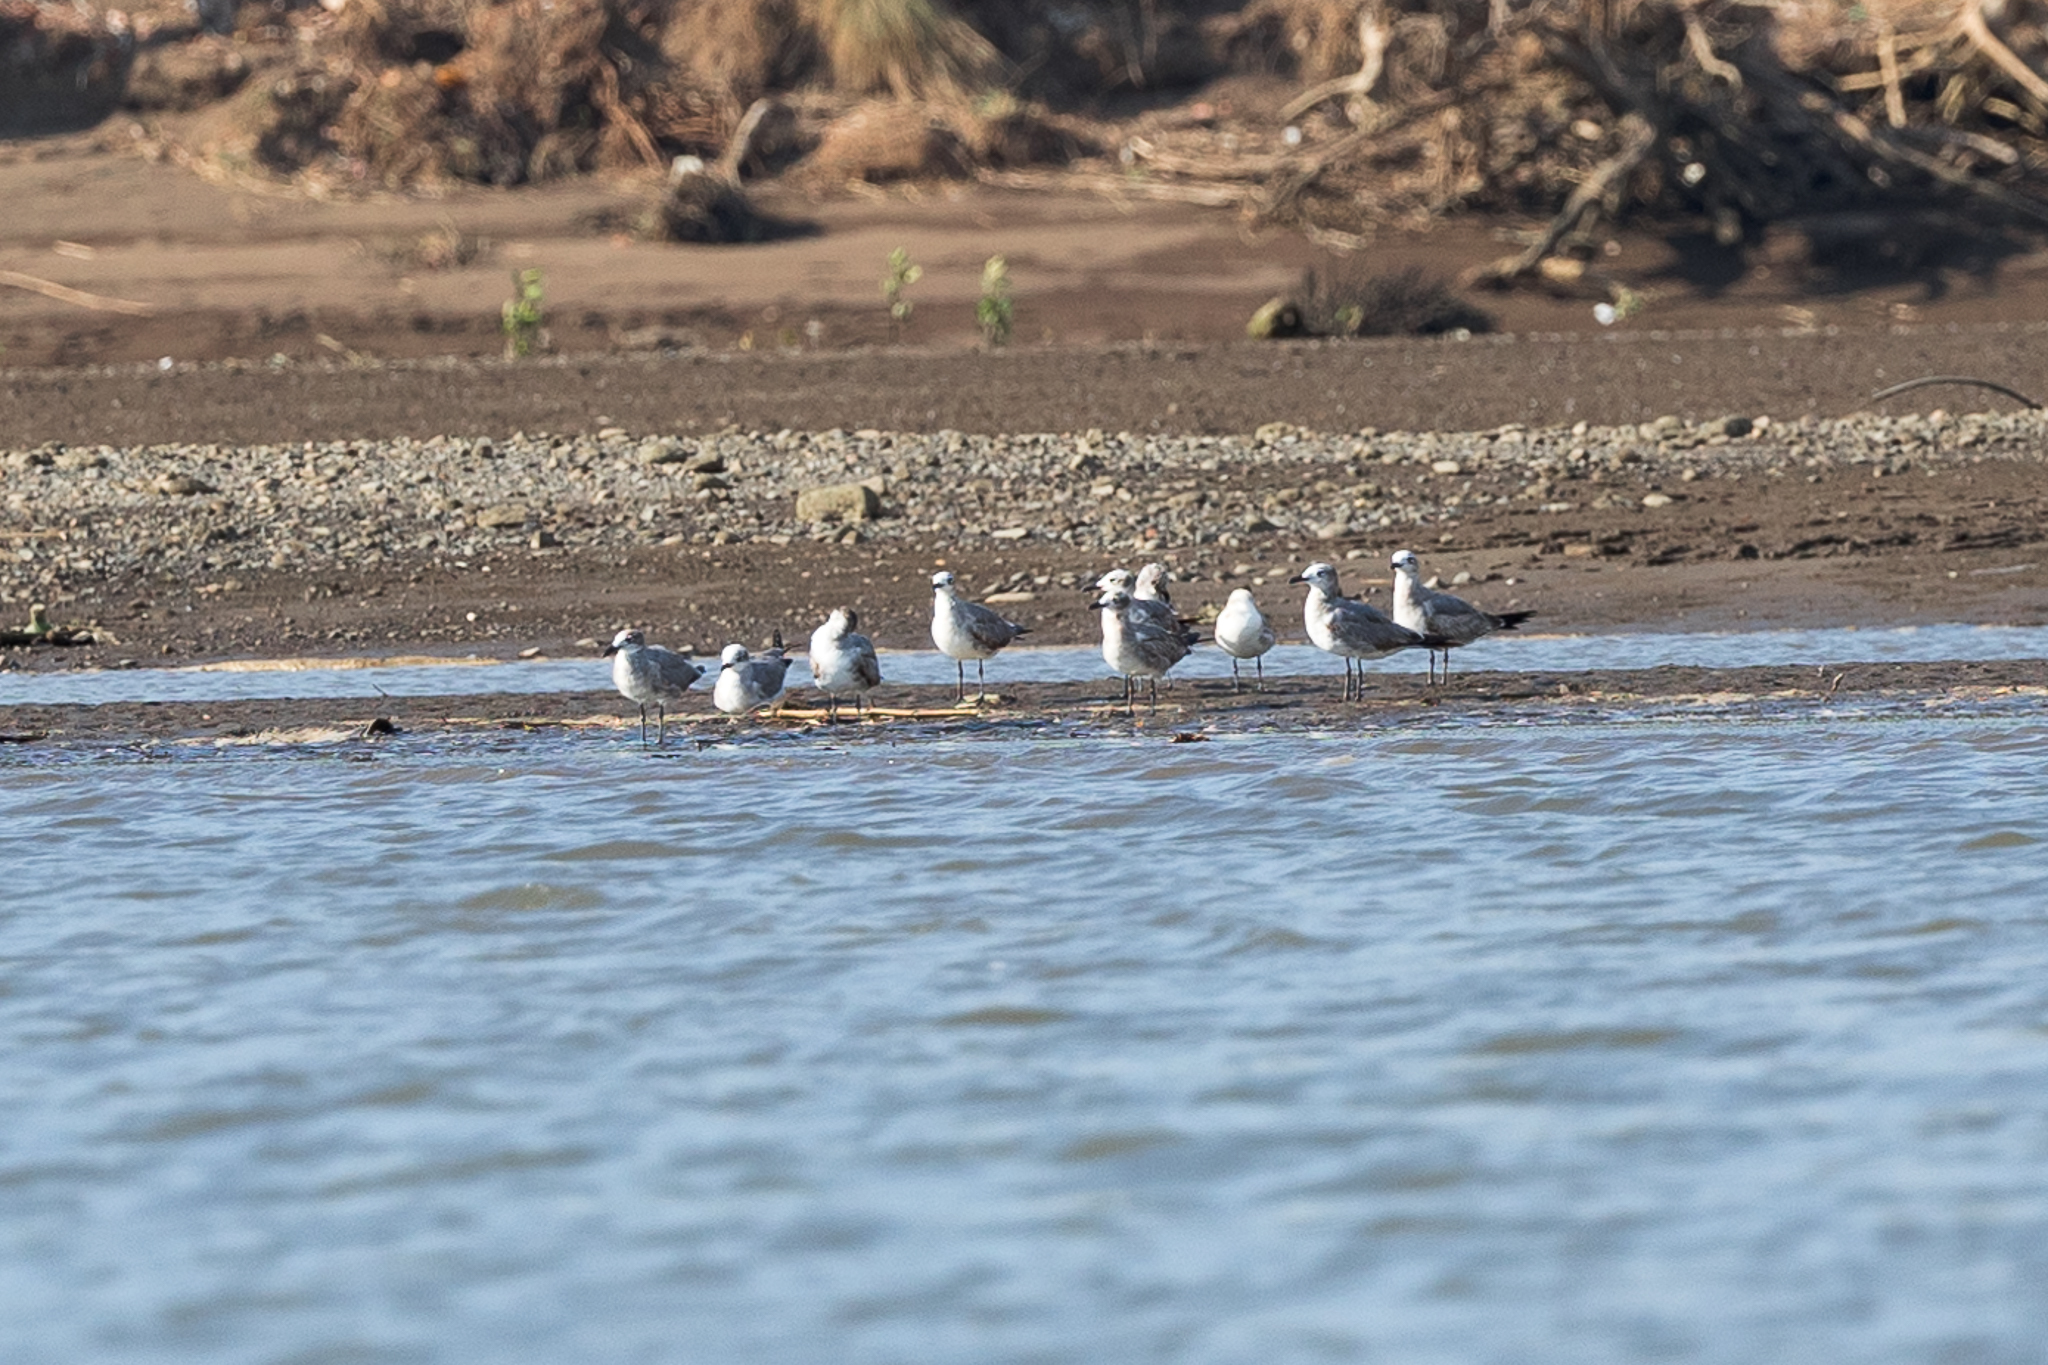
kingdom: Animalia
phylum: Chordata
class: Aves
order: Charadriiformes
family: Laridae
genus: Leucophaeus
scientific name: Leucophaeus atricilla
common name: Laughing gull
